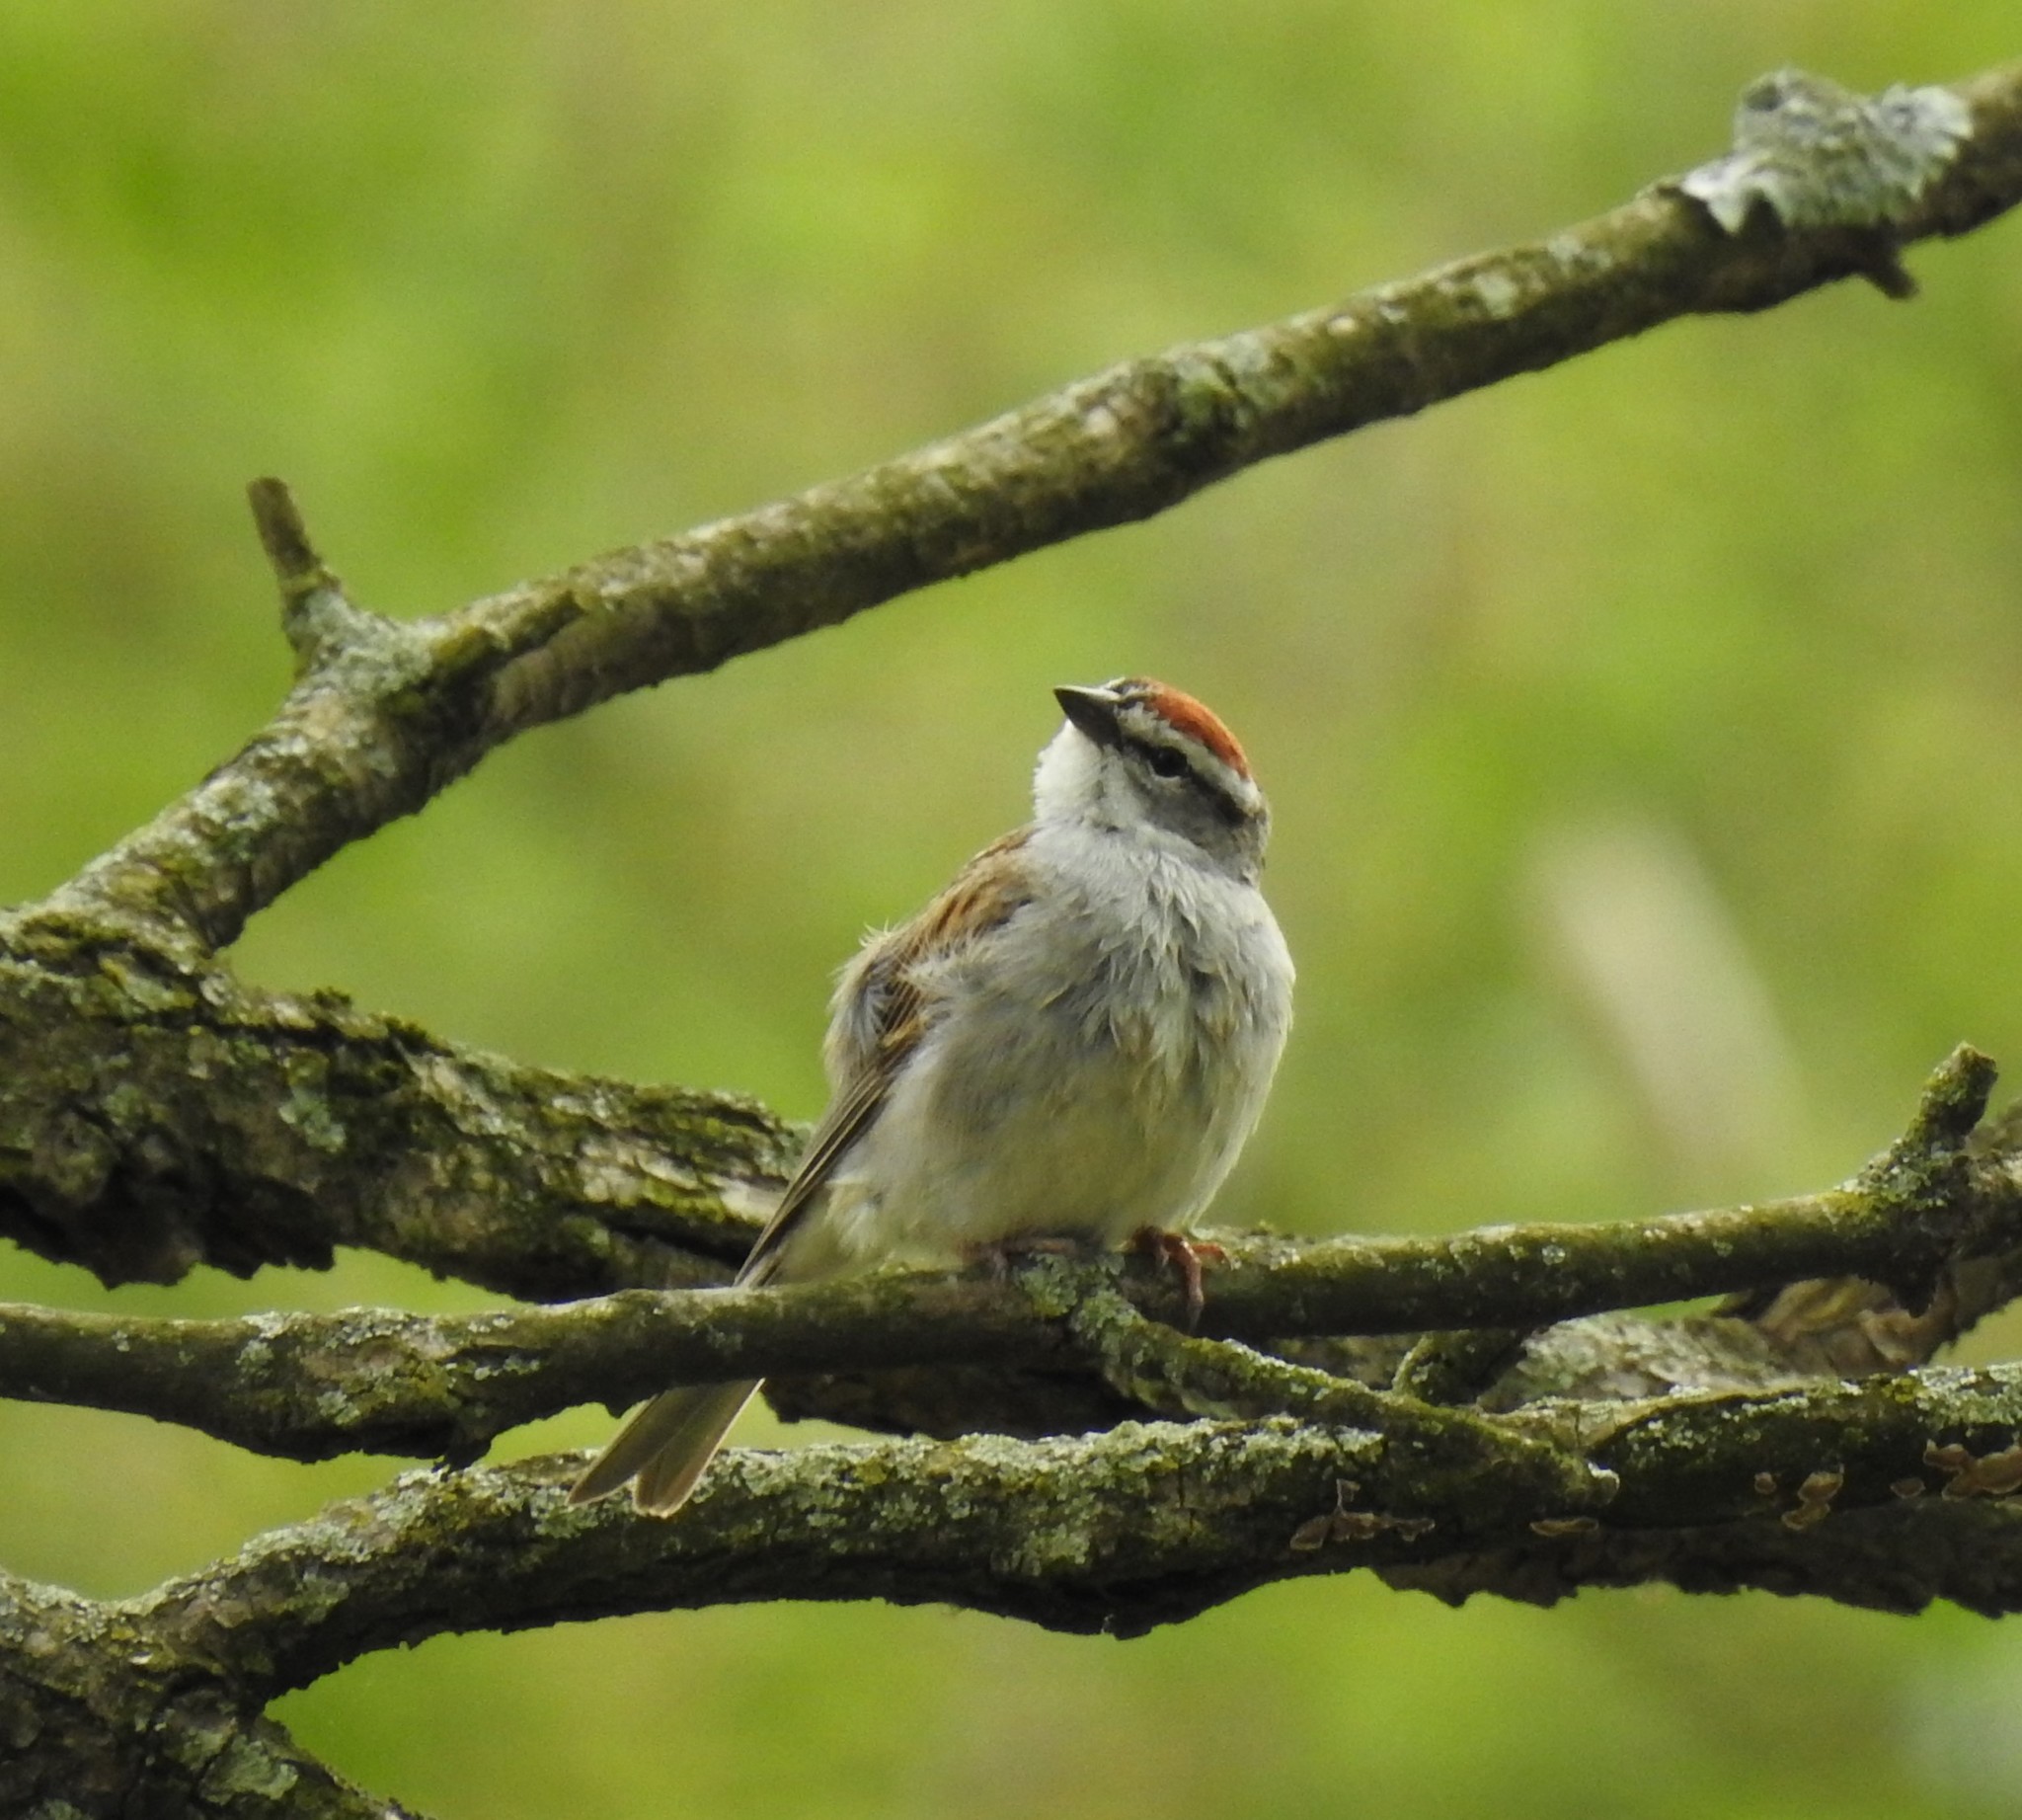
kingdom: Animalia
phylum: Chordata
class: Aves
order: Passeriformes
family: Passerellidae
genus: Spizella
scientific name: Spizella passerina
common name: Chipping sparrow
